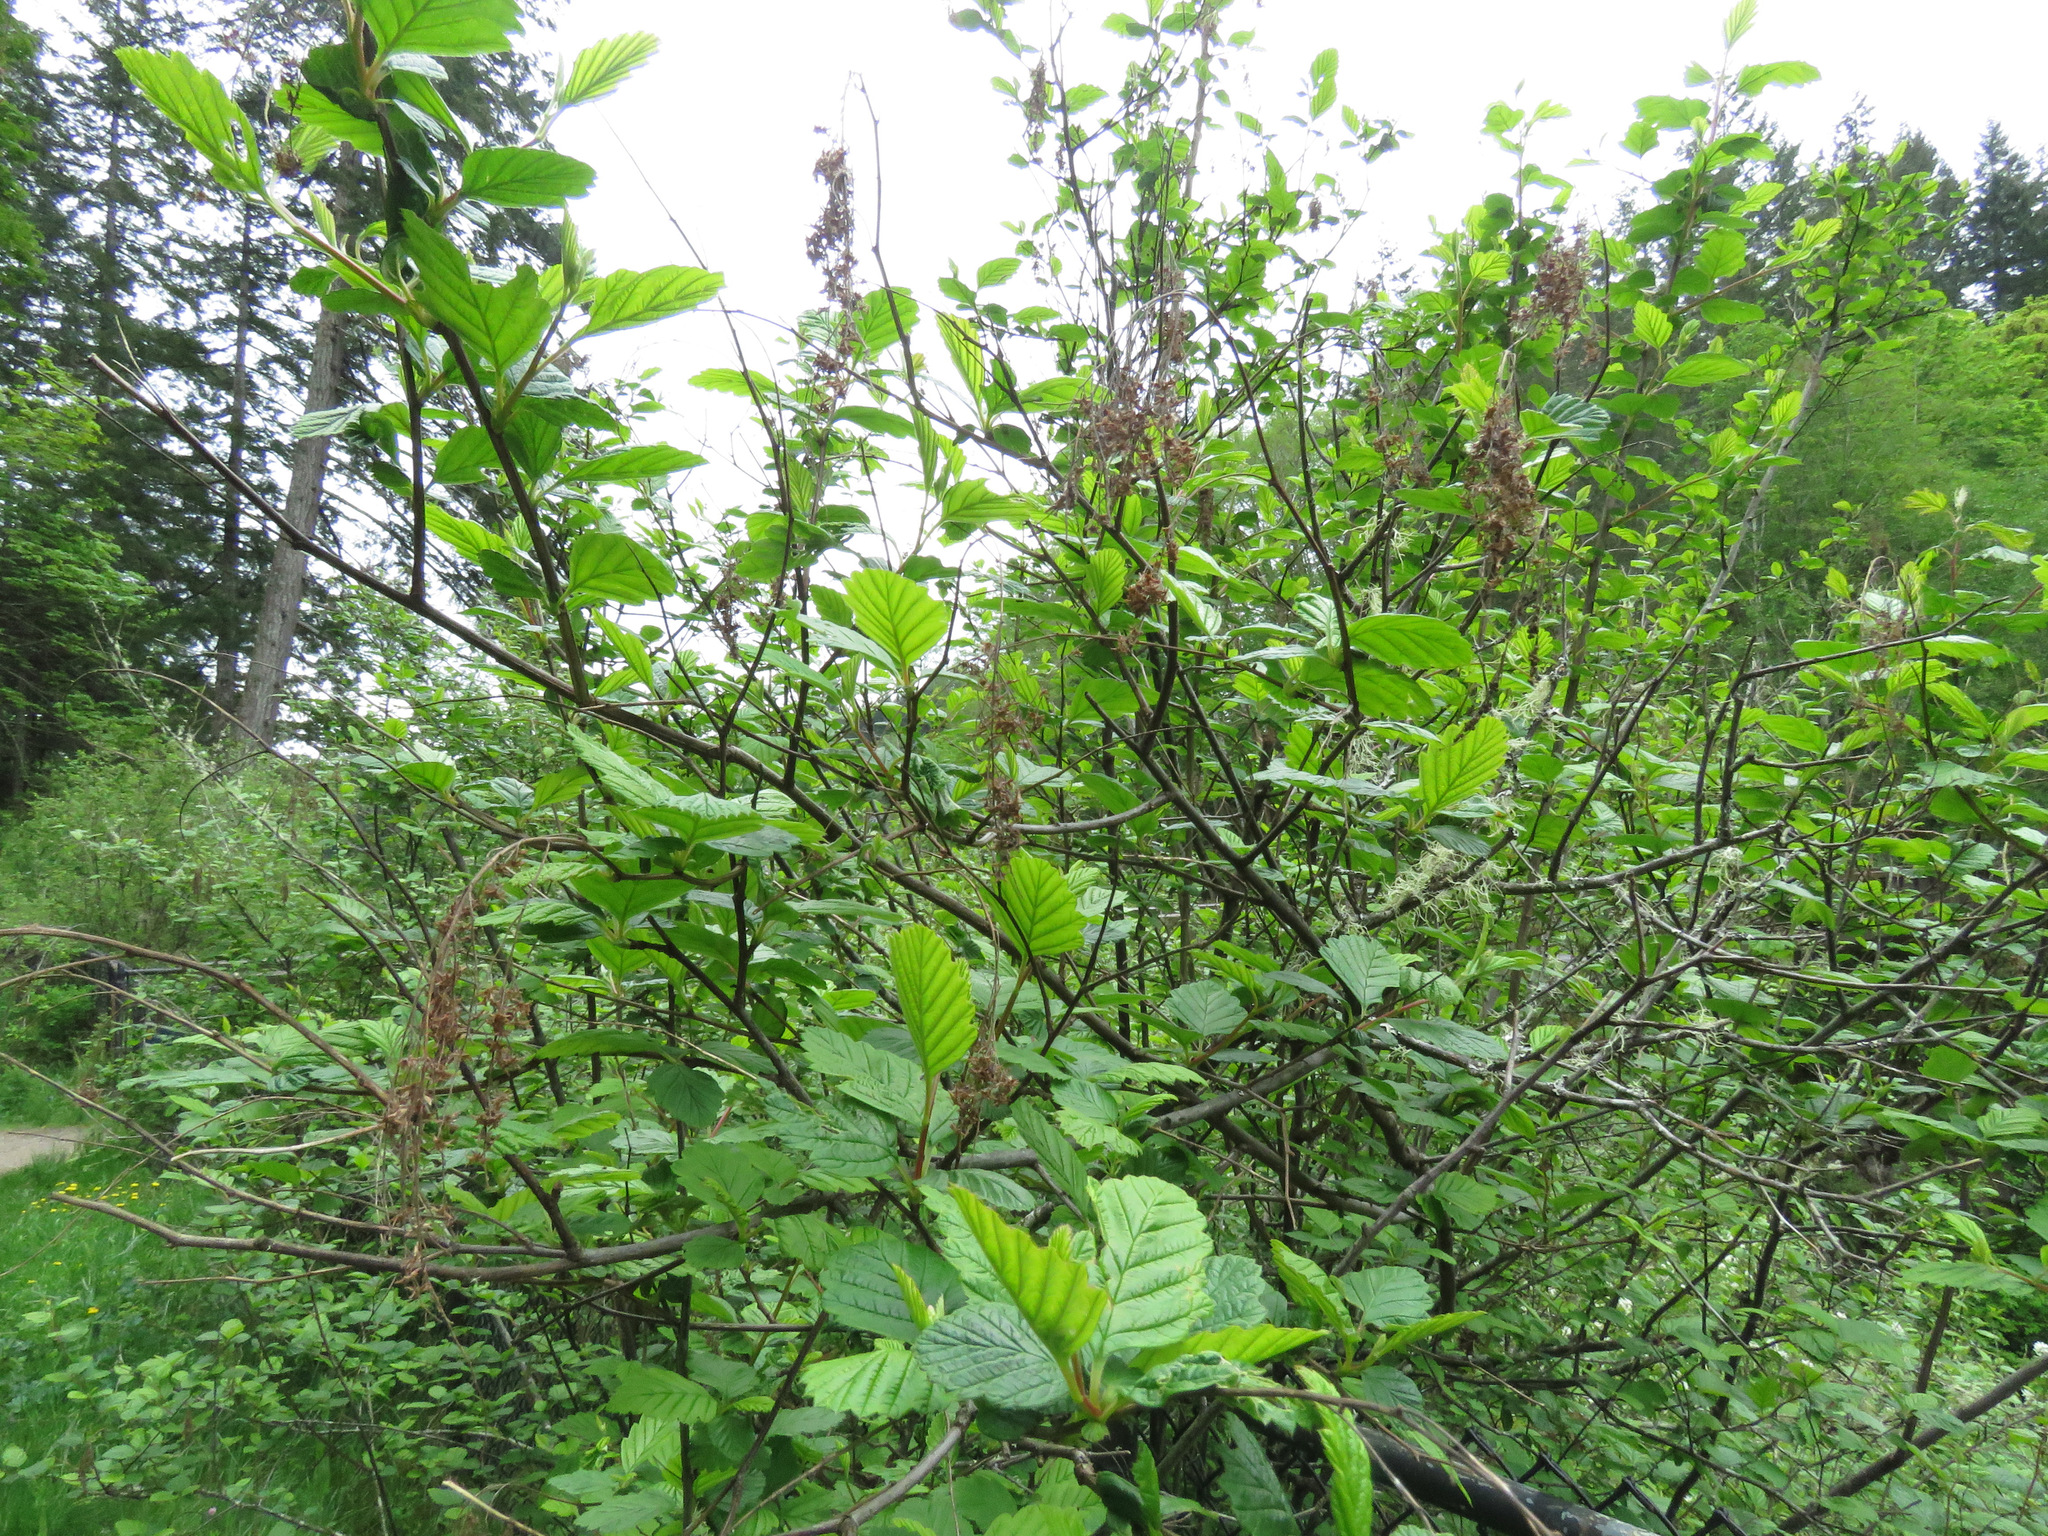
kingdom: Plantae
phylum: Tracheophyta
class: Magnoliopsida
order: Rosales
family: Rosaceae
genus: Holodiscus
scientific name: Holodiscus discolor
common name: Oceanspray
